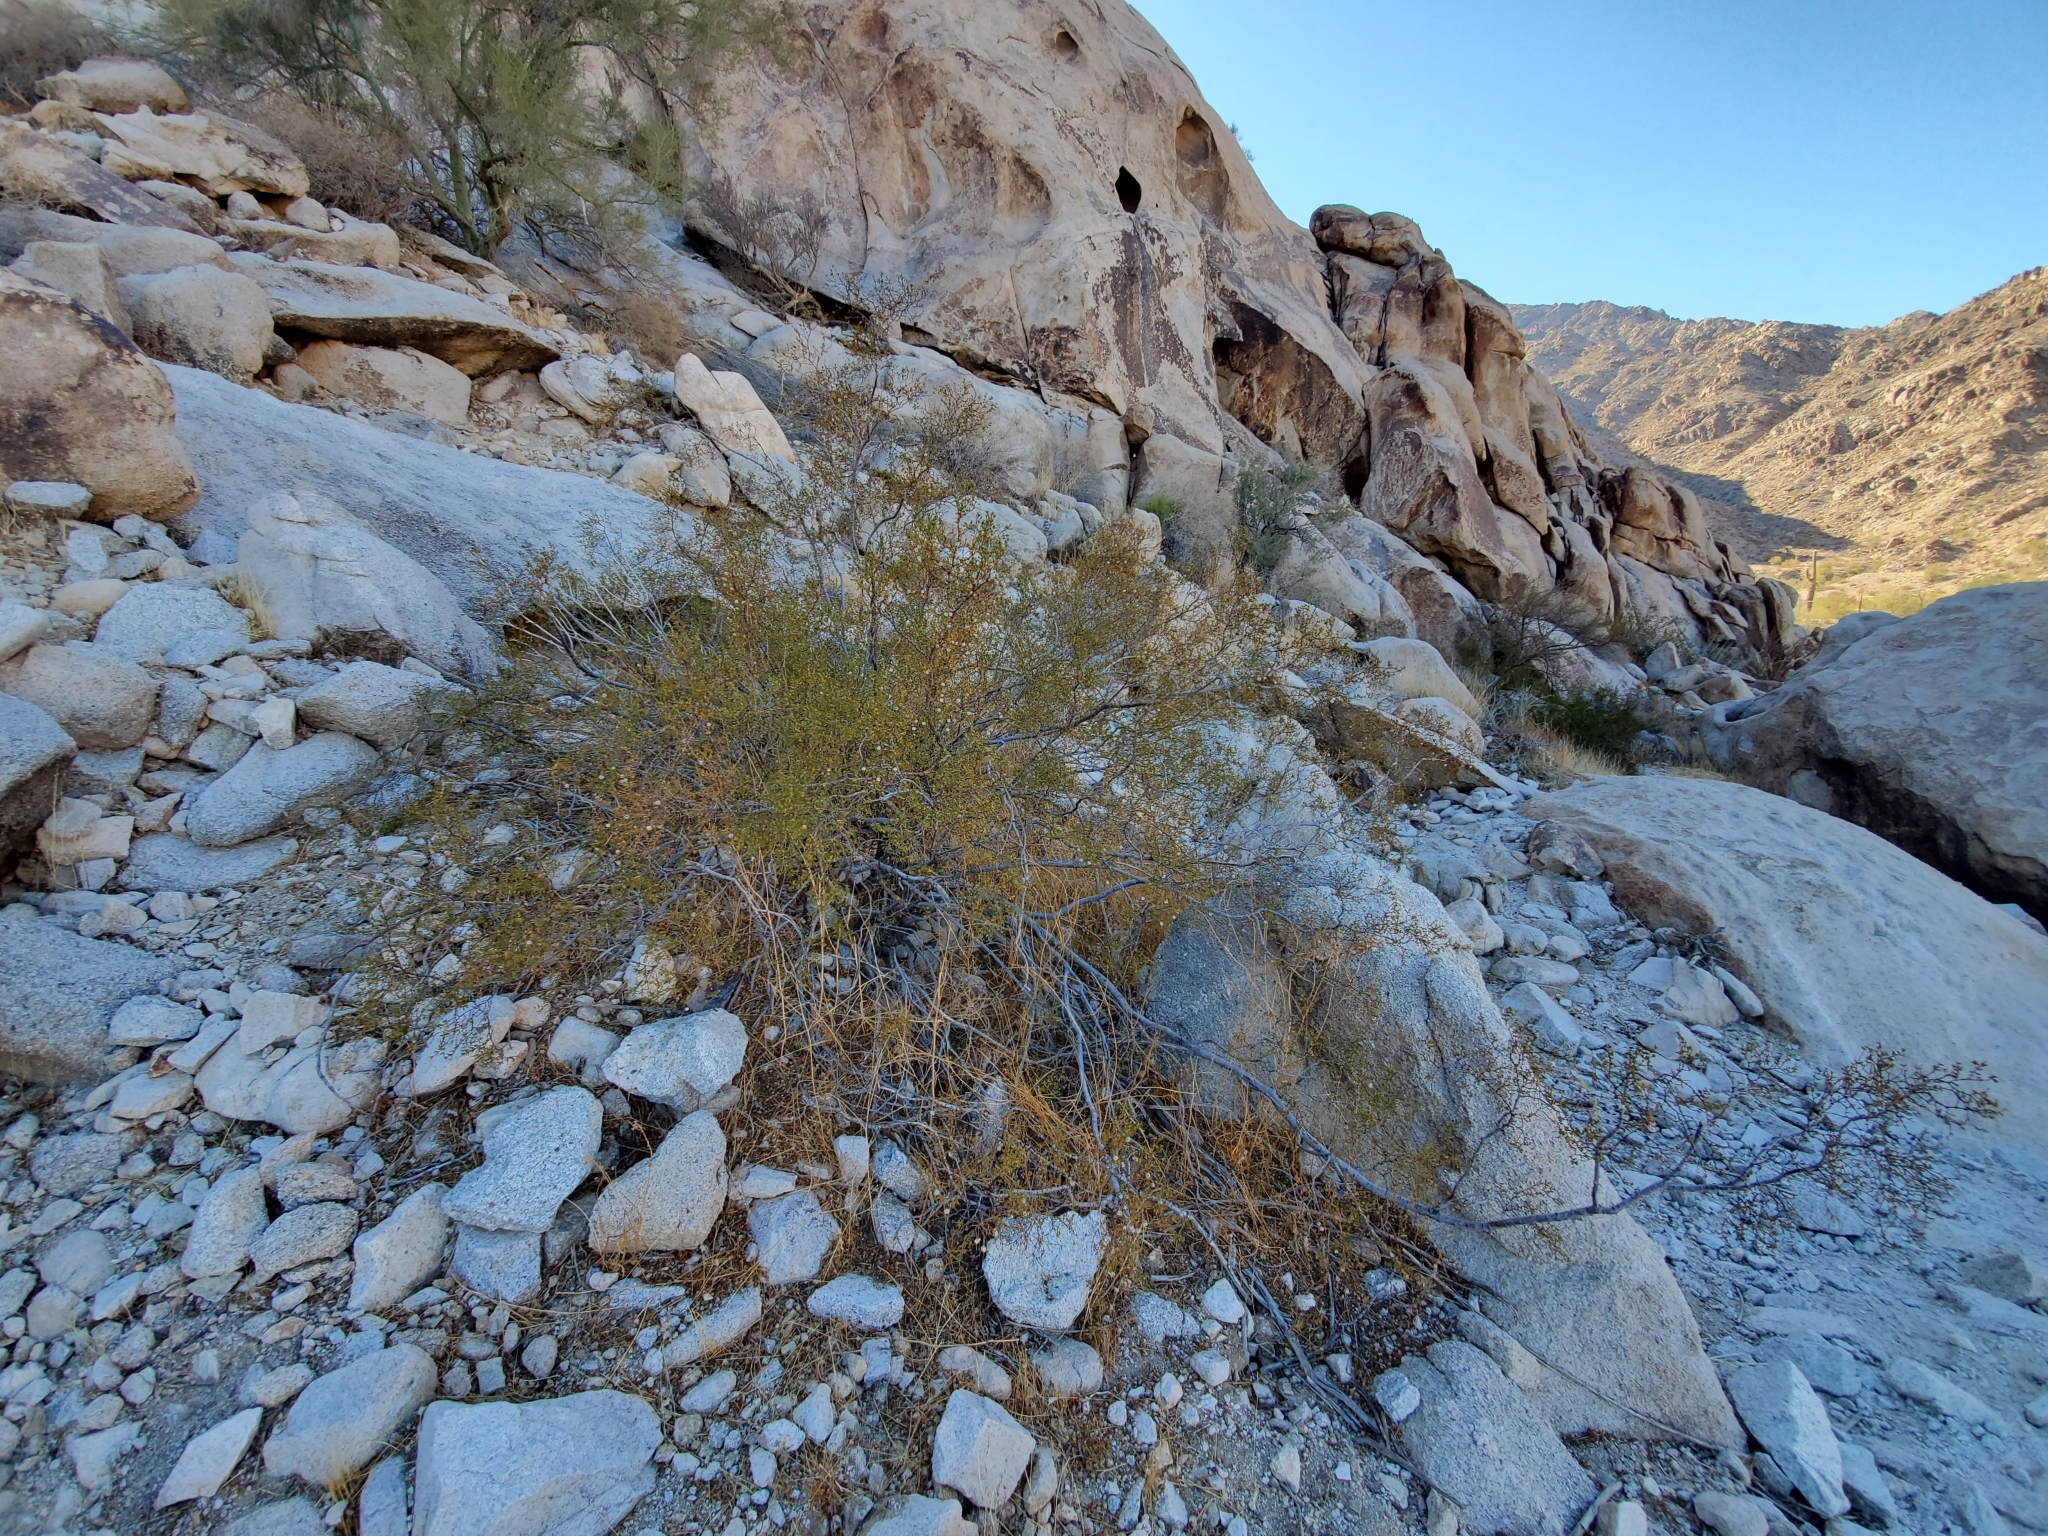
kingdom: Plantae
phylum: Tracheophyta
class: Magnoliopsida
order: Zygophyllales
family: Zygophyllaceae
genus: Larrea
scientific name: Larrea tridentata
